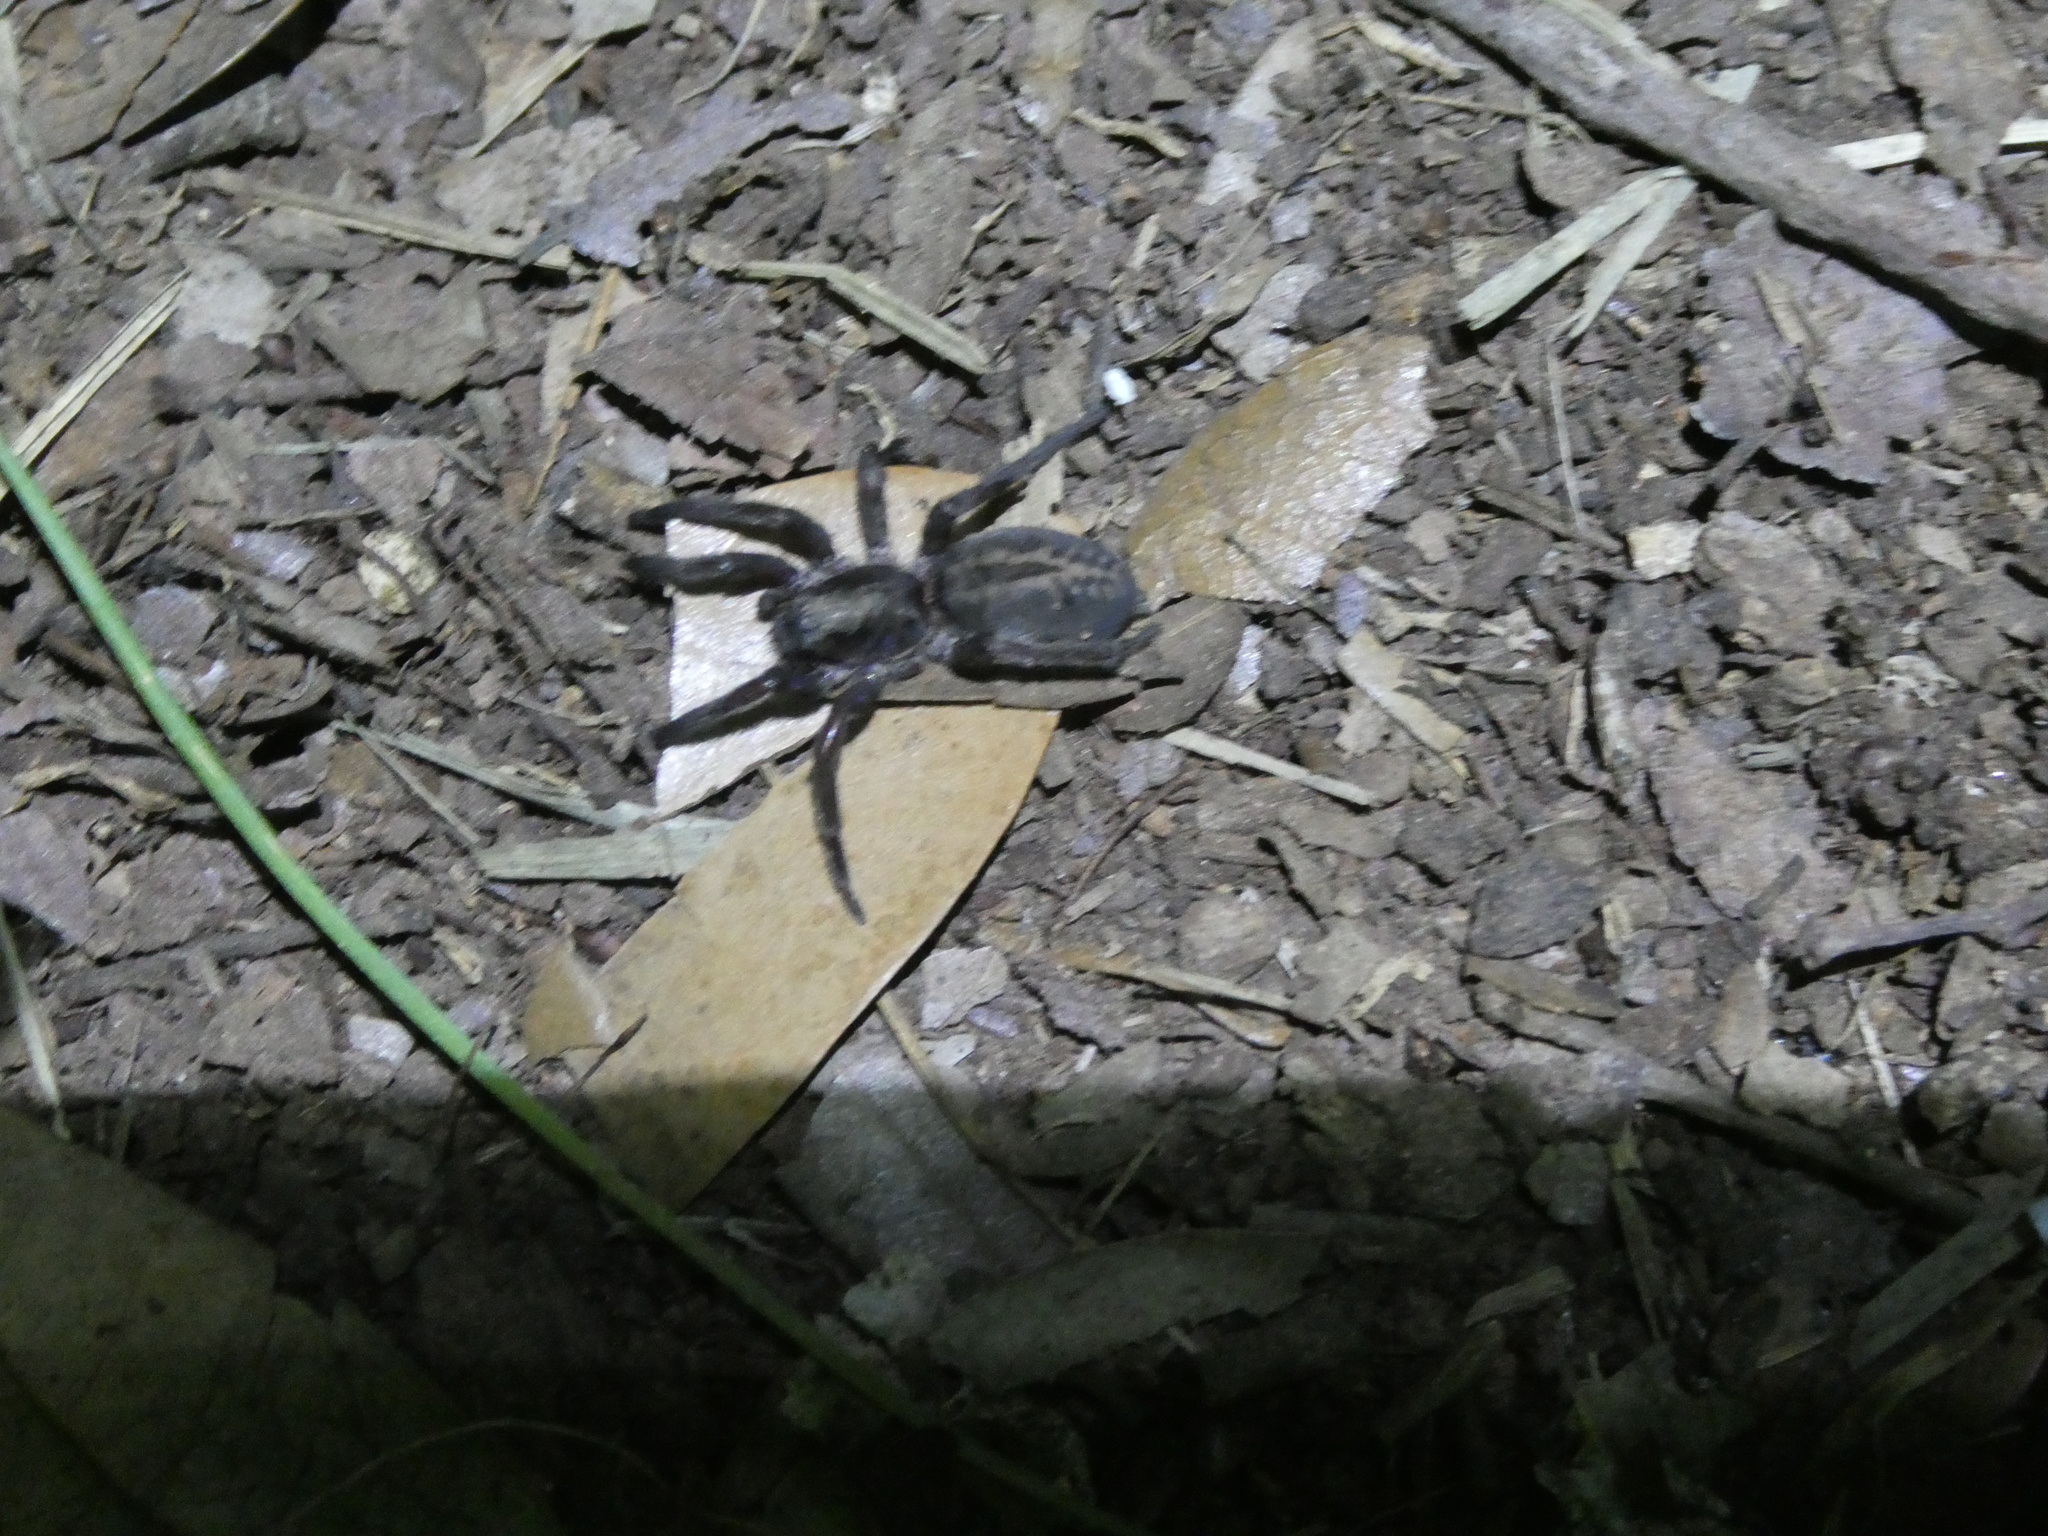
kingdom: Animalia
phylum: Arthropoda
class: Arachnida
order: Araneae
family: Miturgidae
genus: Teminius
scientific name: Teminius affinis
